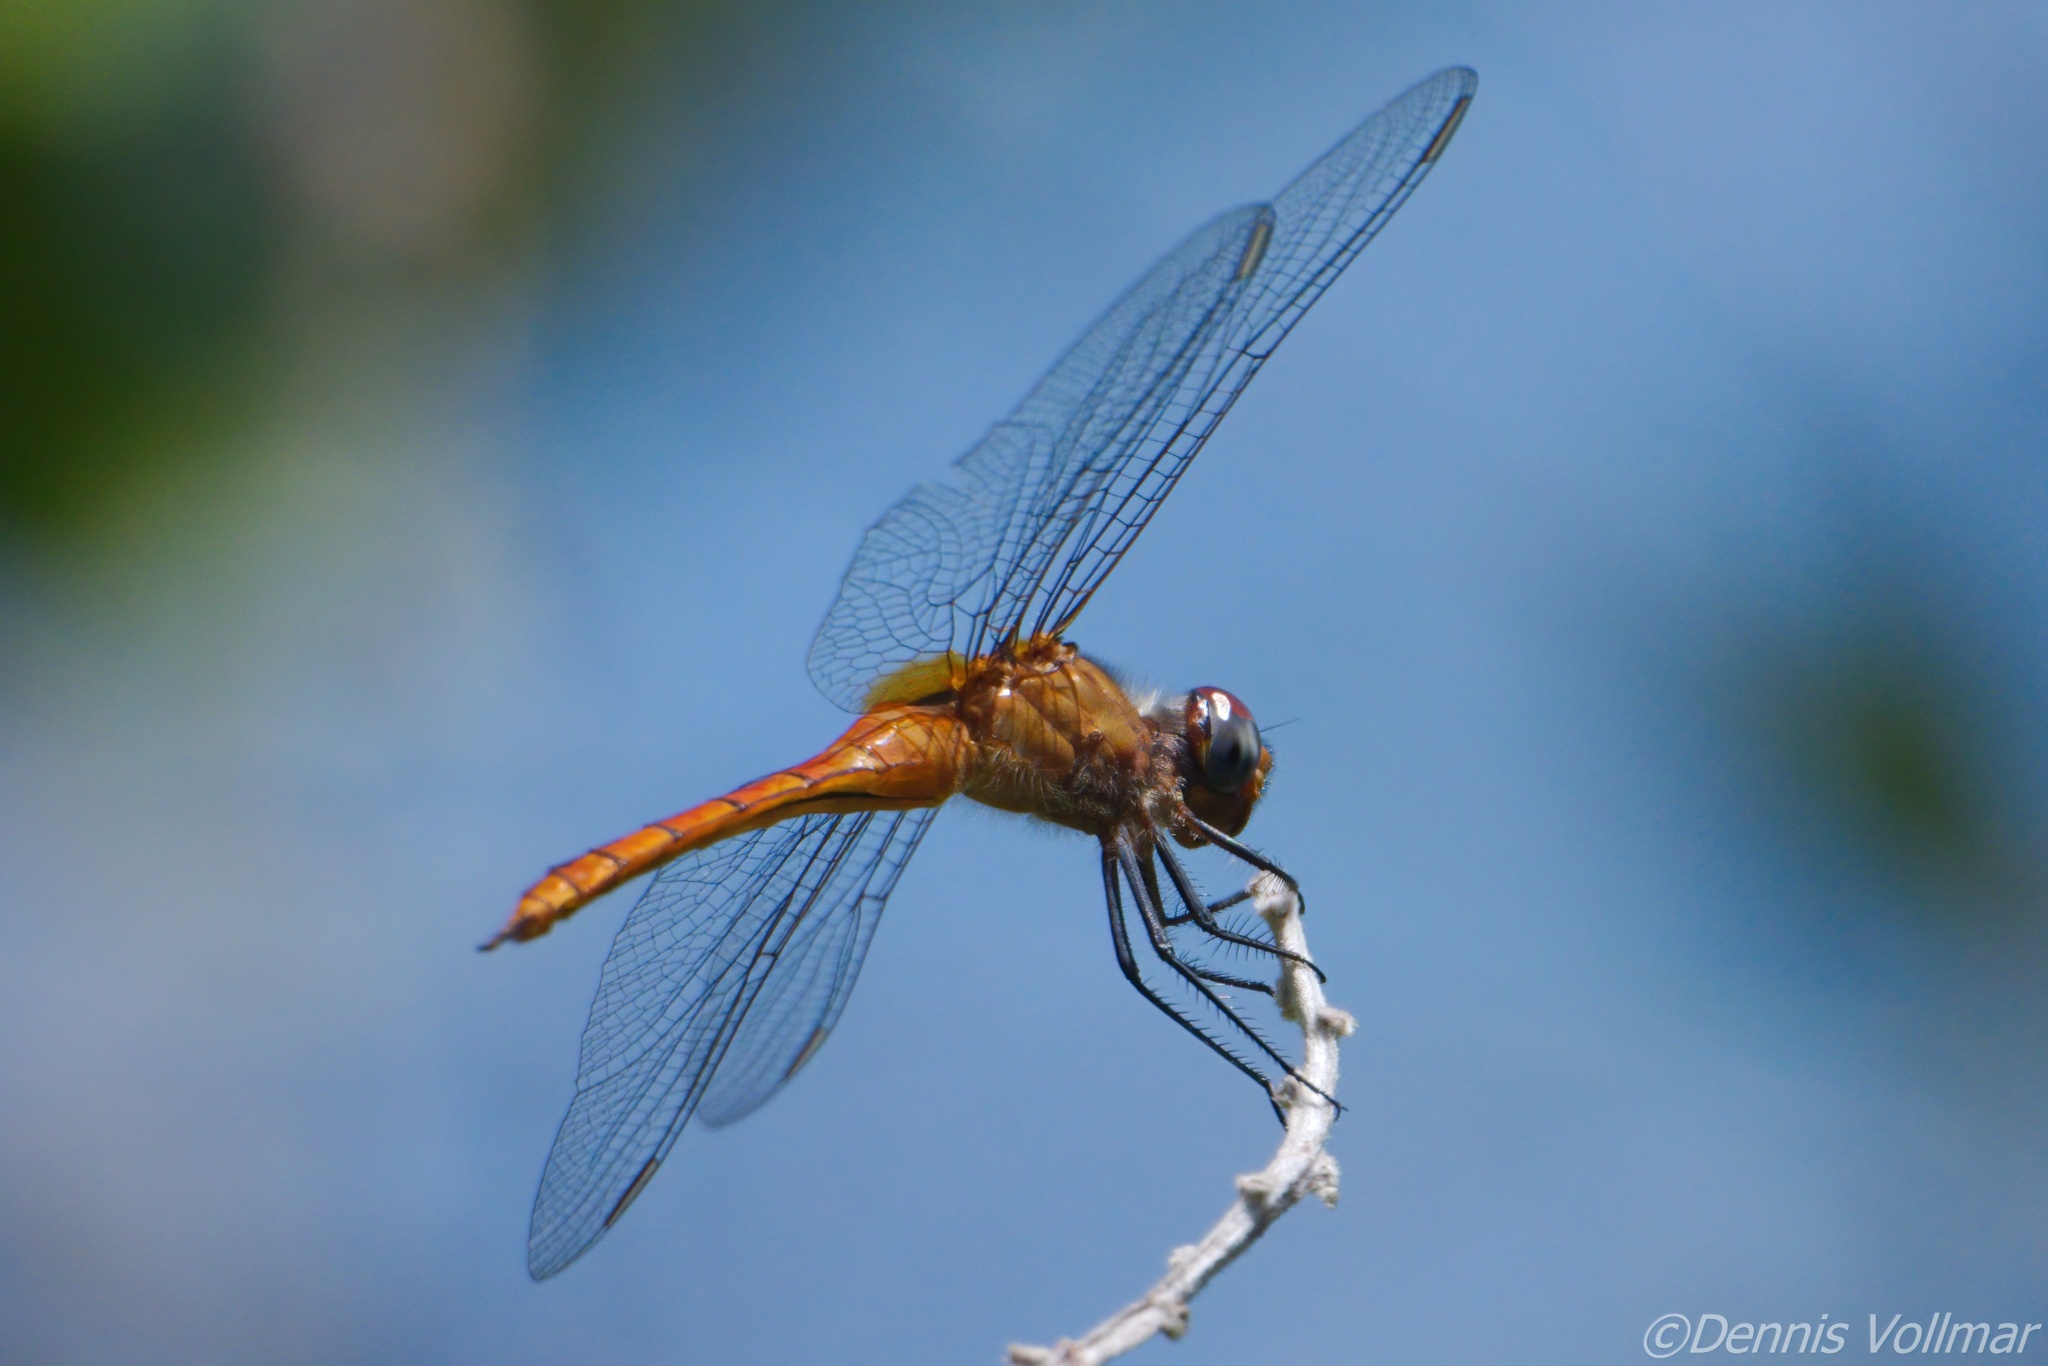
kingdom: Animalia
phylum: Arthropoda
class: Insecta
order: Odonata
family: Libellulidae
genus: Brachymesia
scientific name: Brachymesia furcata
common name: Red-taled pennant
